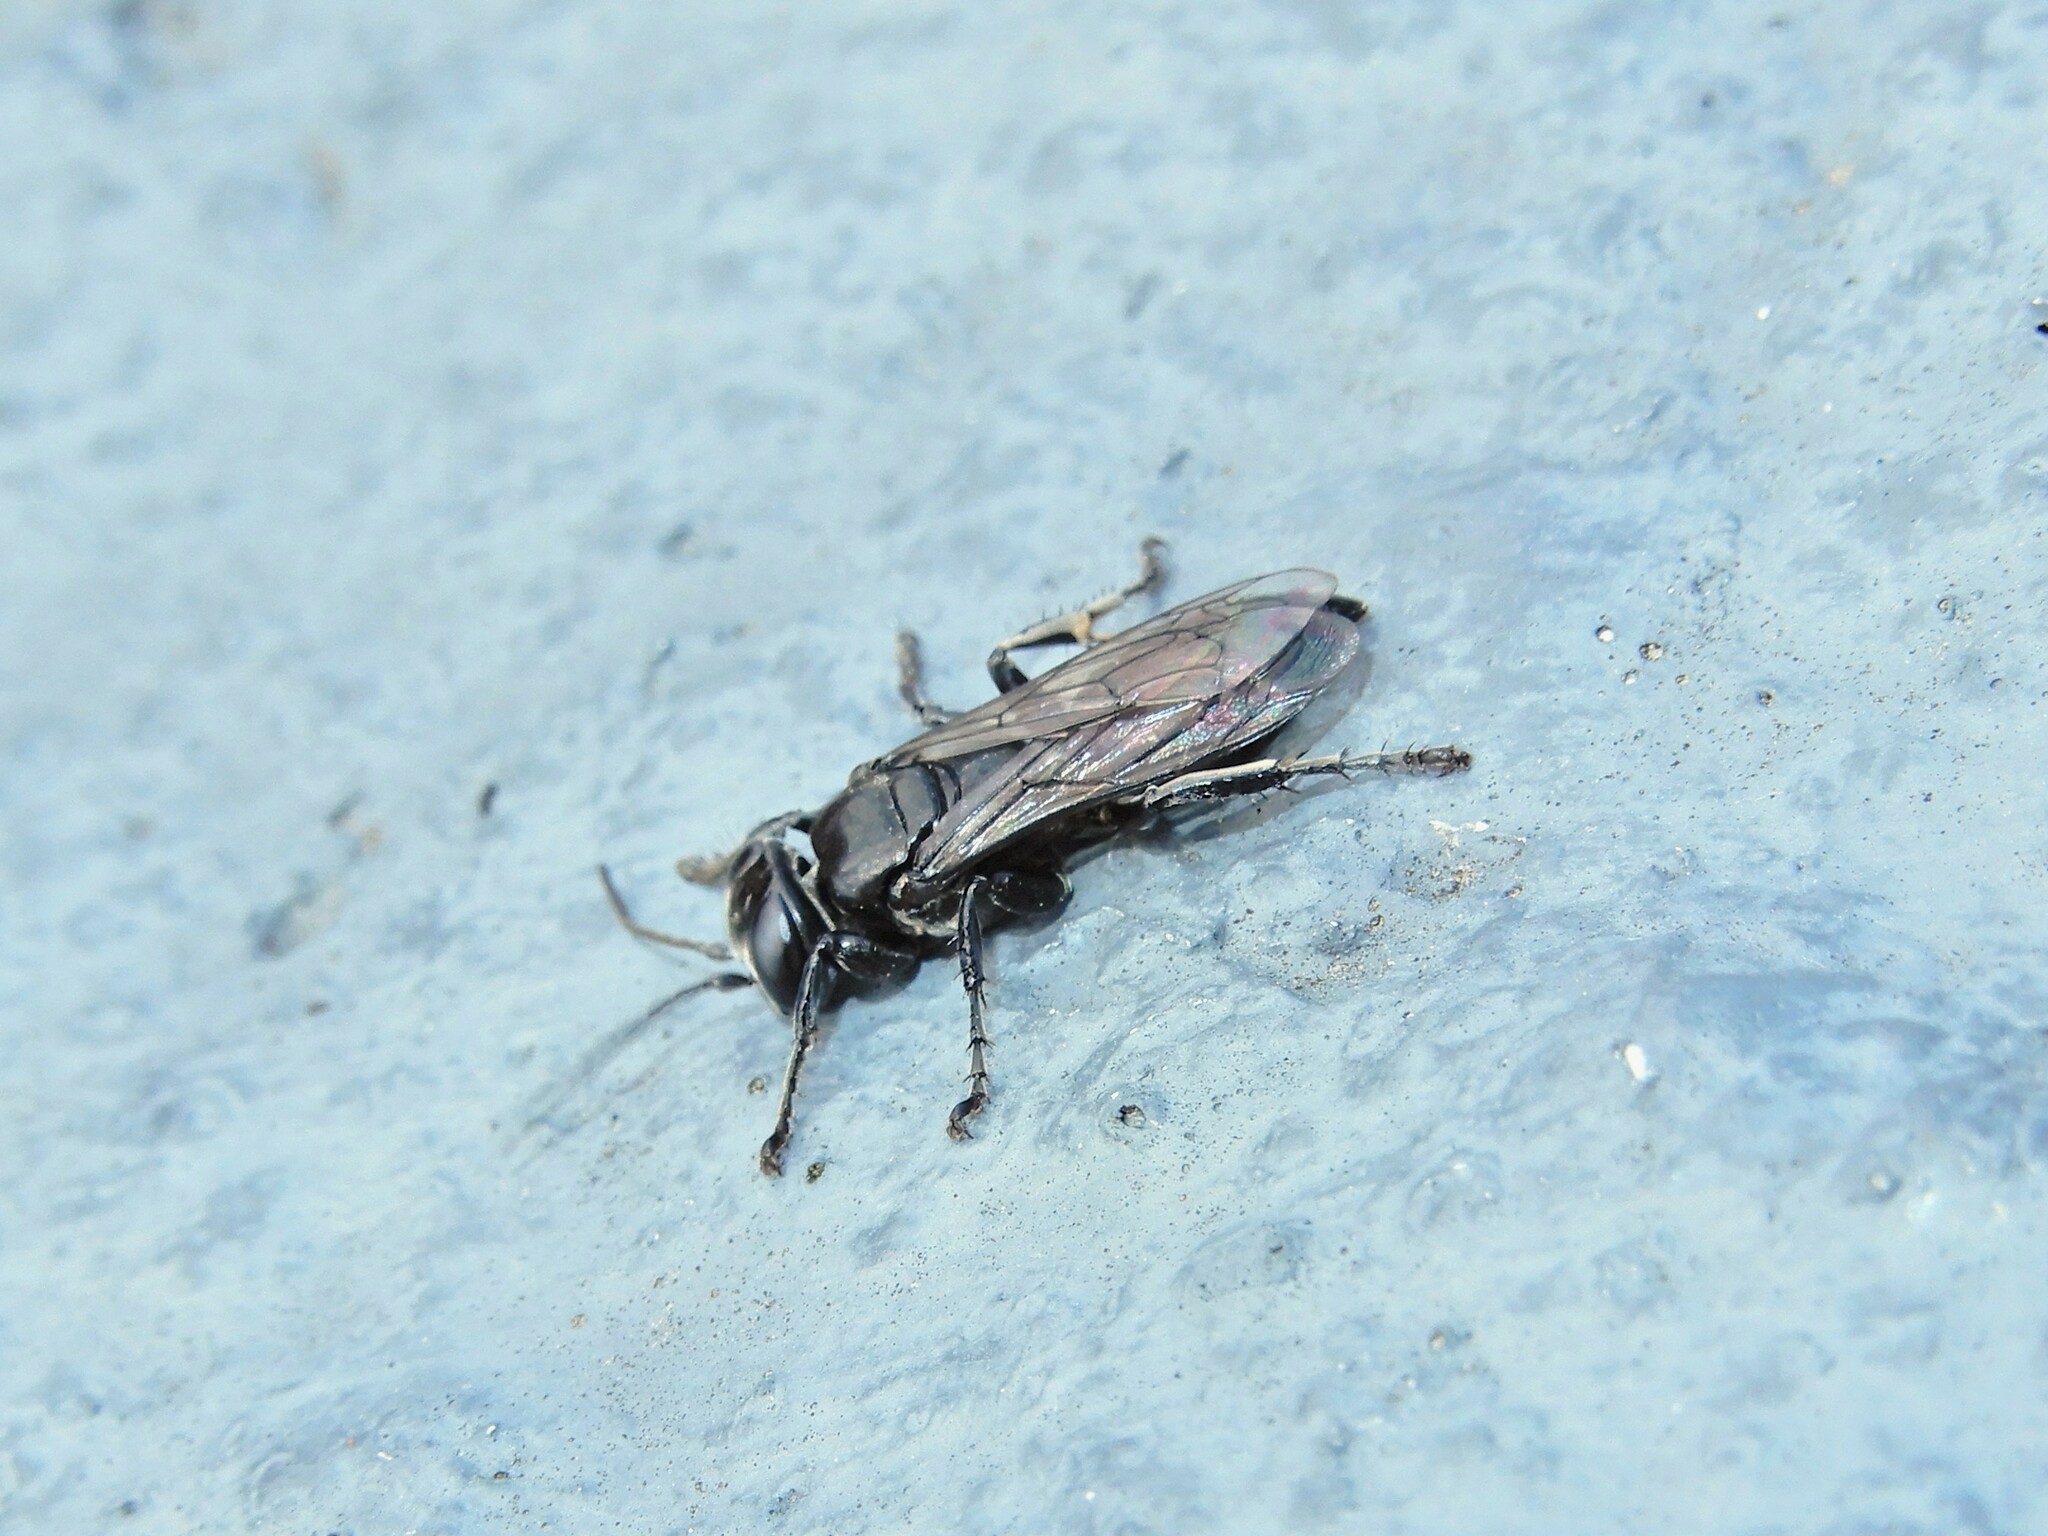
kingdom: Animalia
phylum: Arthropoda
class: Insecta
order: Hymenoptera
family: Crabronidae
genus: Tachysphex
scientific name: Tachysphex nigerrimus
